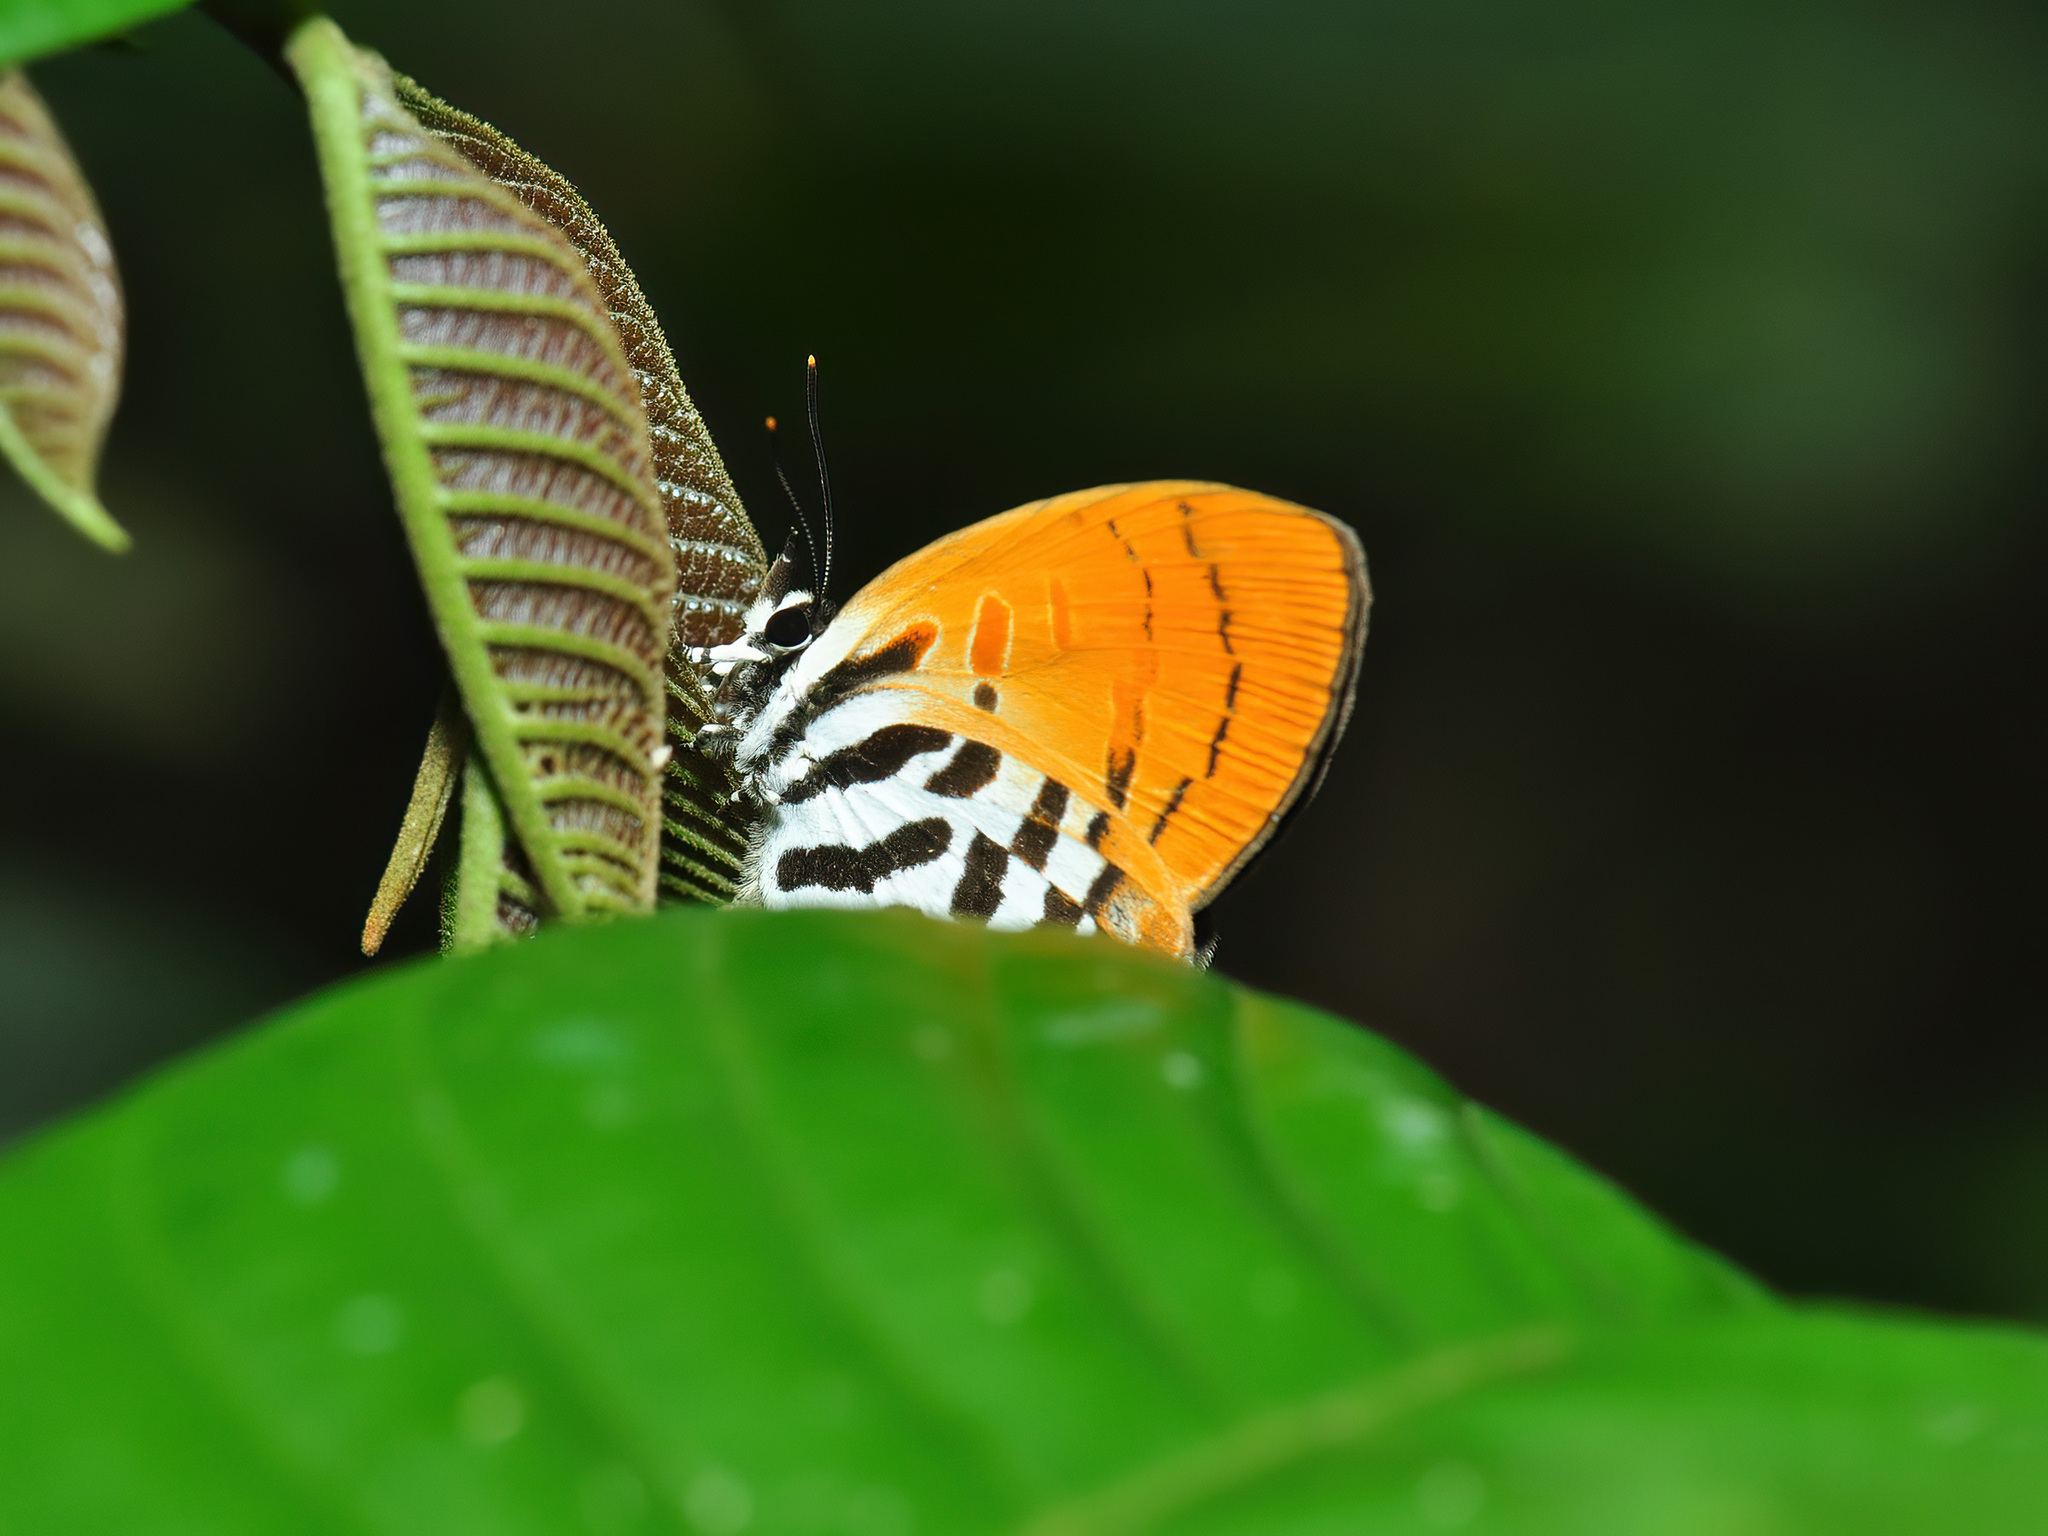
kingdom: Animalia
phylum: Arthropoda
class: Insecta
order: Lepidoptera
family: Lycaenidae
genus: Drupadia
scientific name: Drupadia ravindra
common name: Common posy
